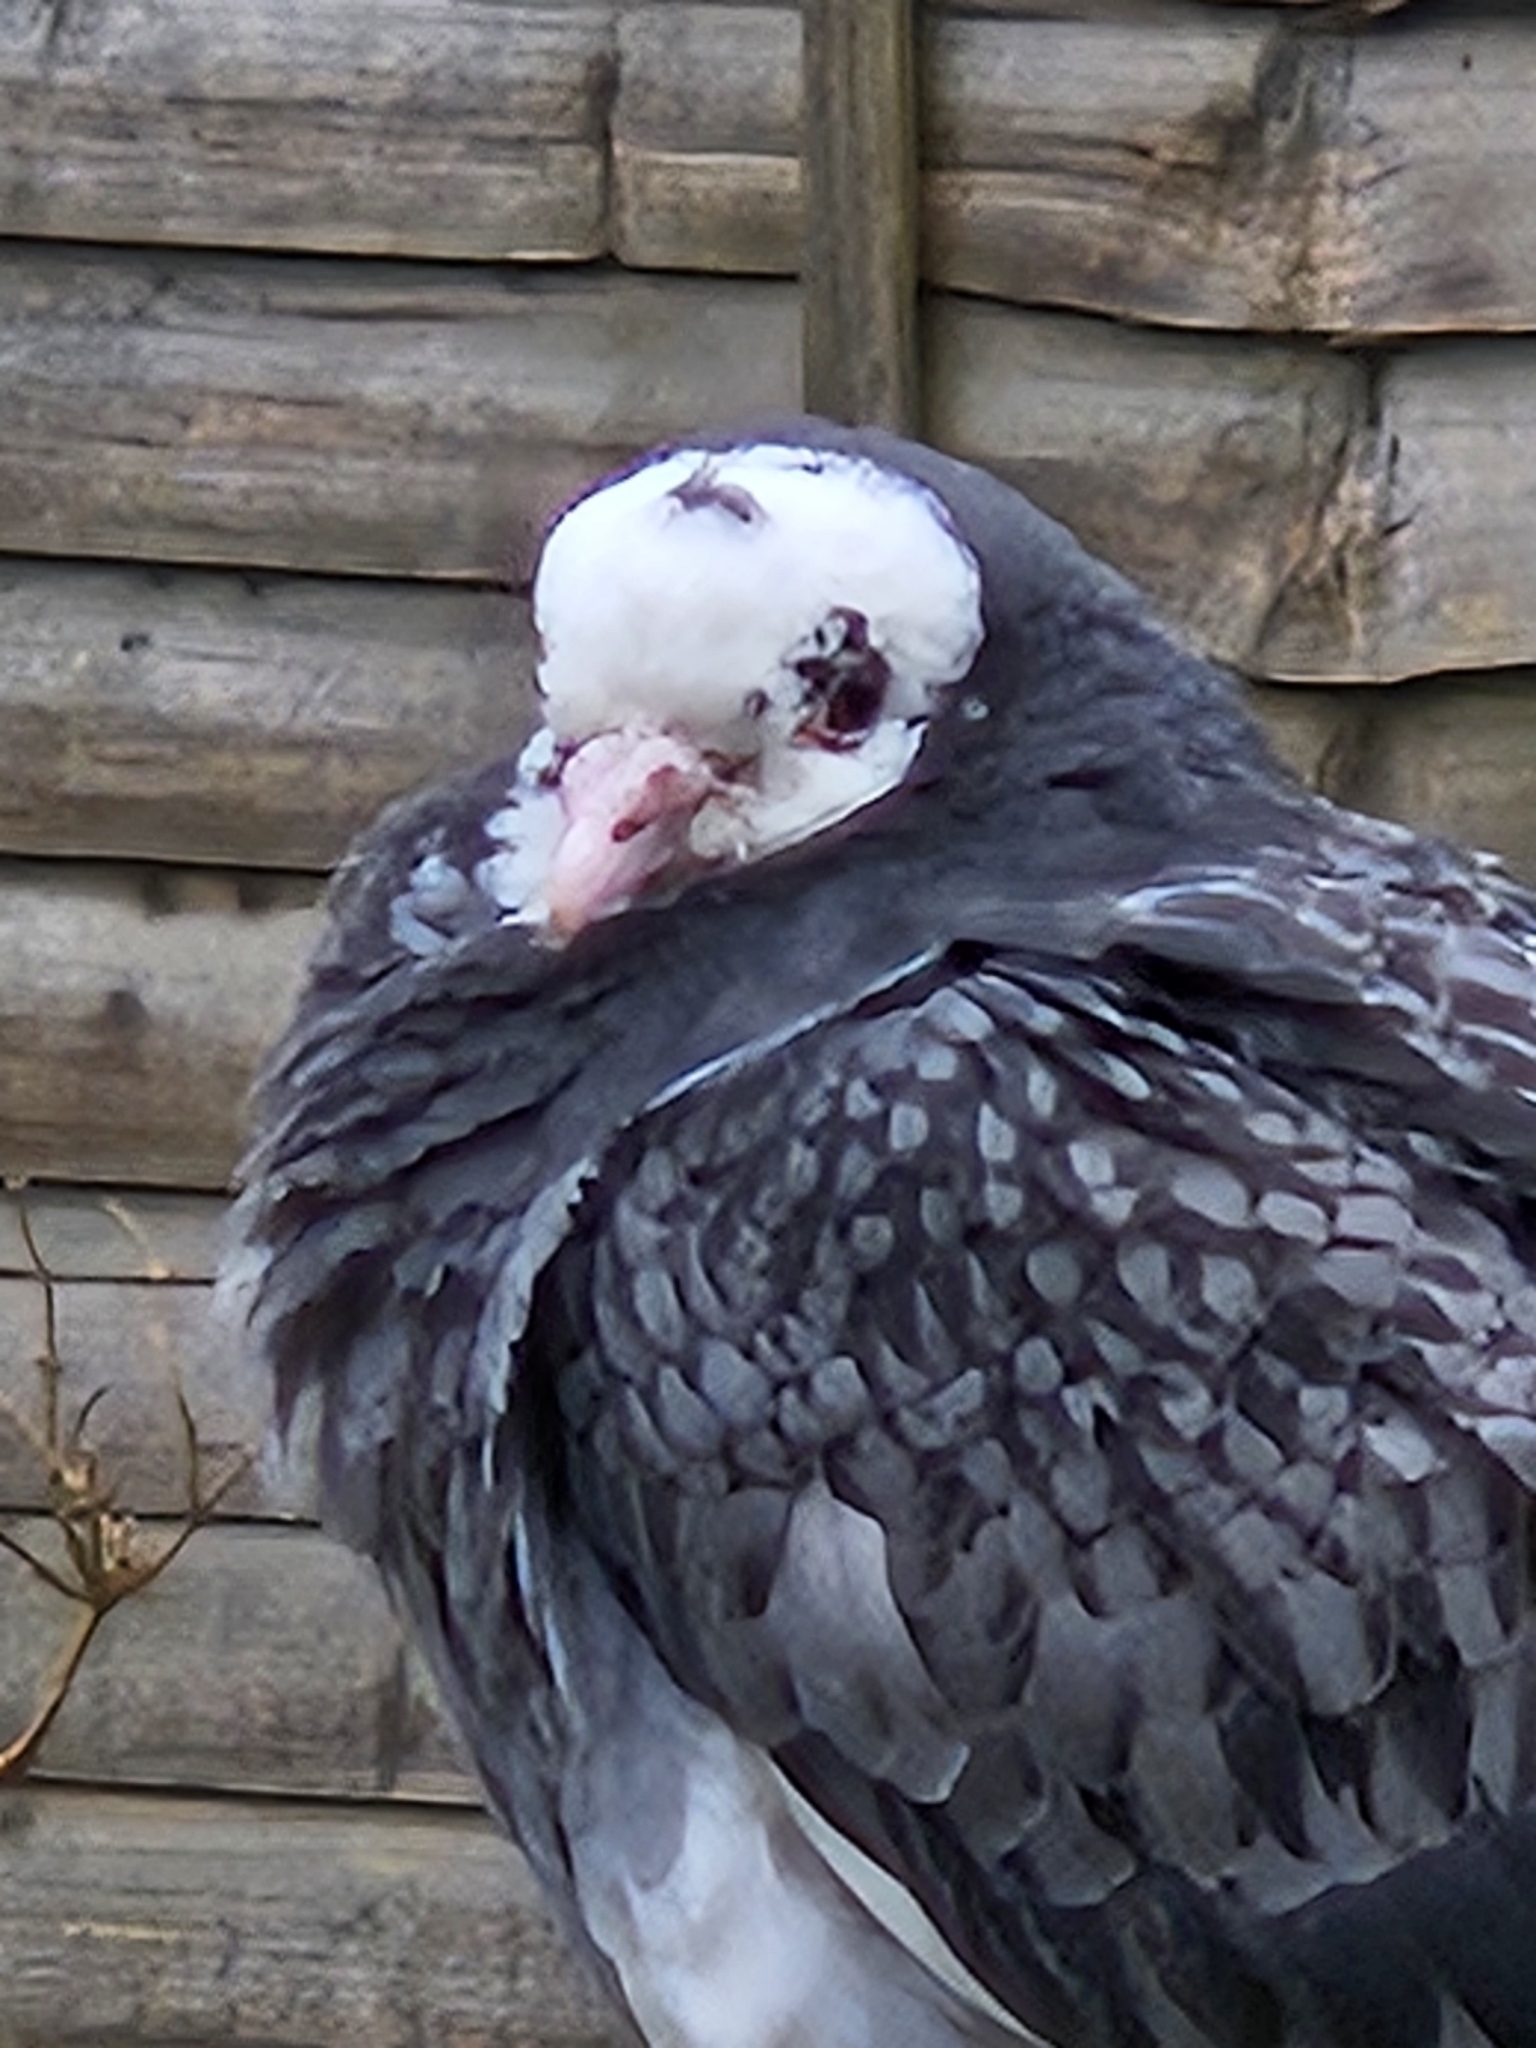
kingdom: Animalia
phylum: Chordata
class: Aves
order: Columbiformes
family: Columbidae
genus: Columba
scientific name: Columba livia
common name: Rock pigeon
